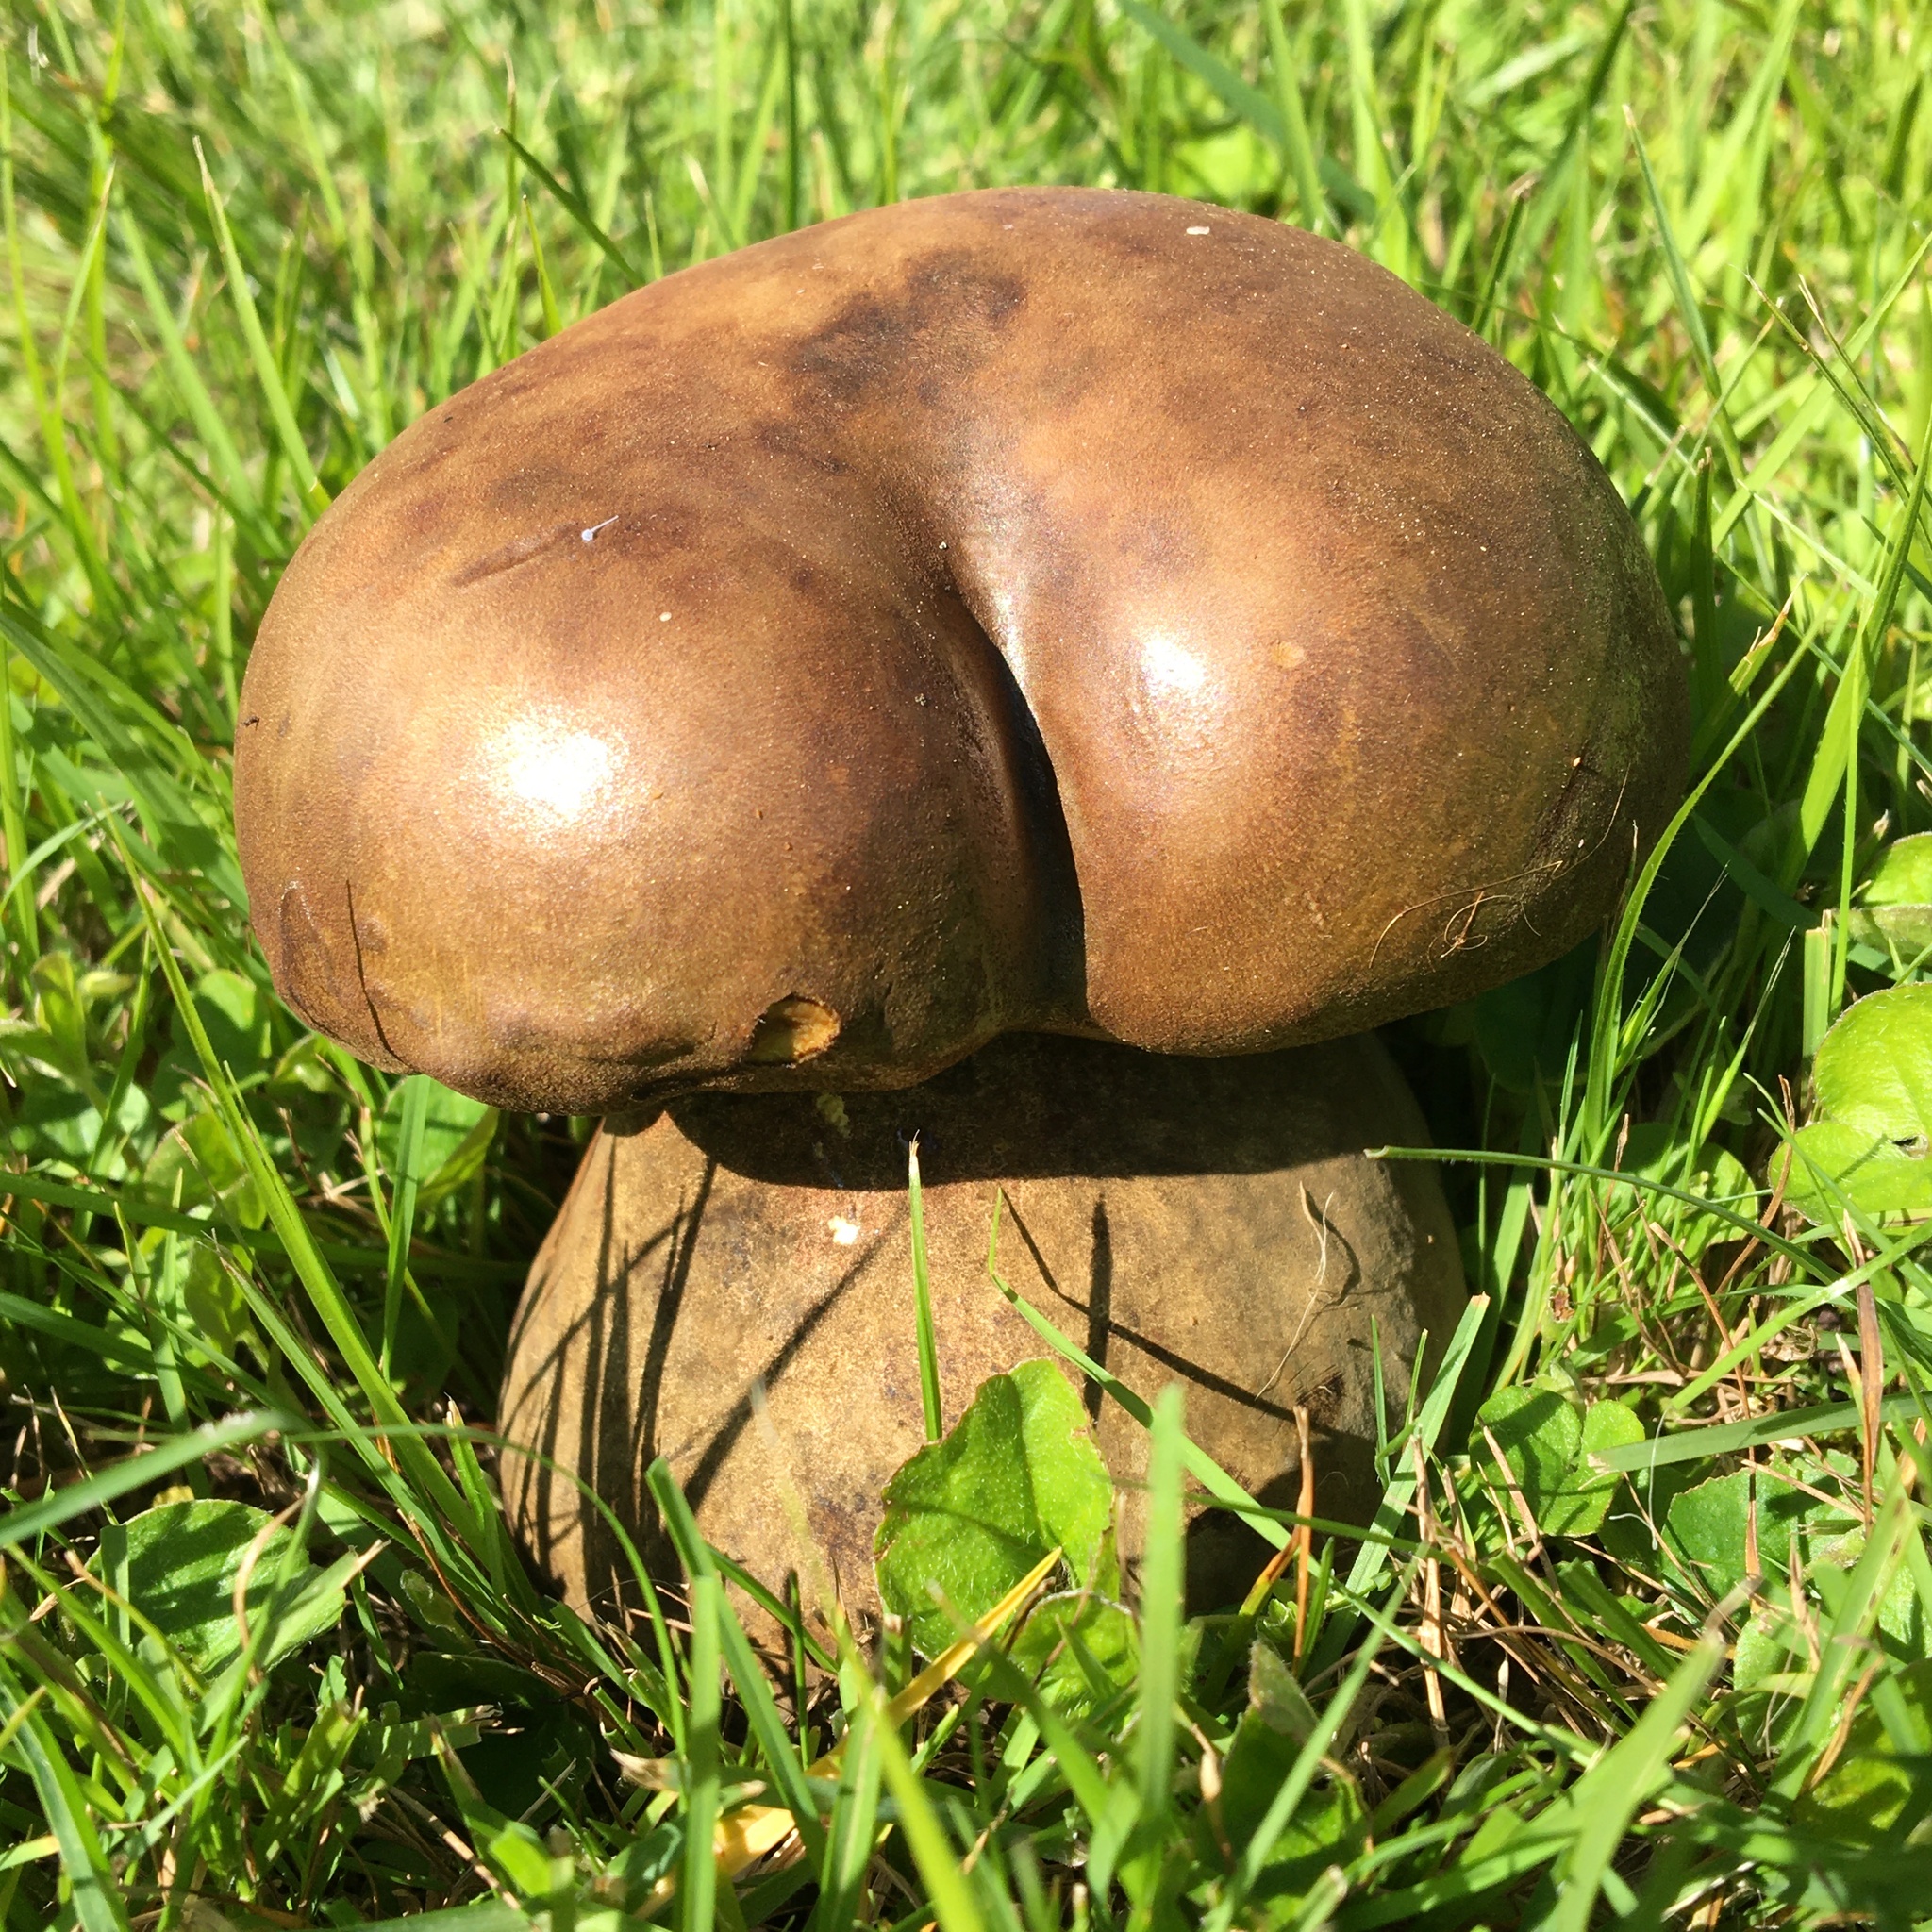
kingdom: Fungi
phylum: Basidiomycota
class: Agaricomycetes
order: Boletales
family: Boletinellaceae
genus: Phlebopus
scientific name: Phlebopus marginatus
